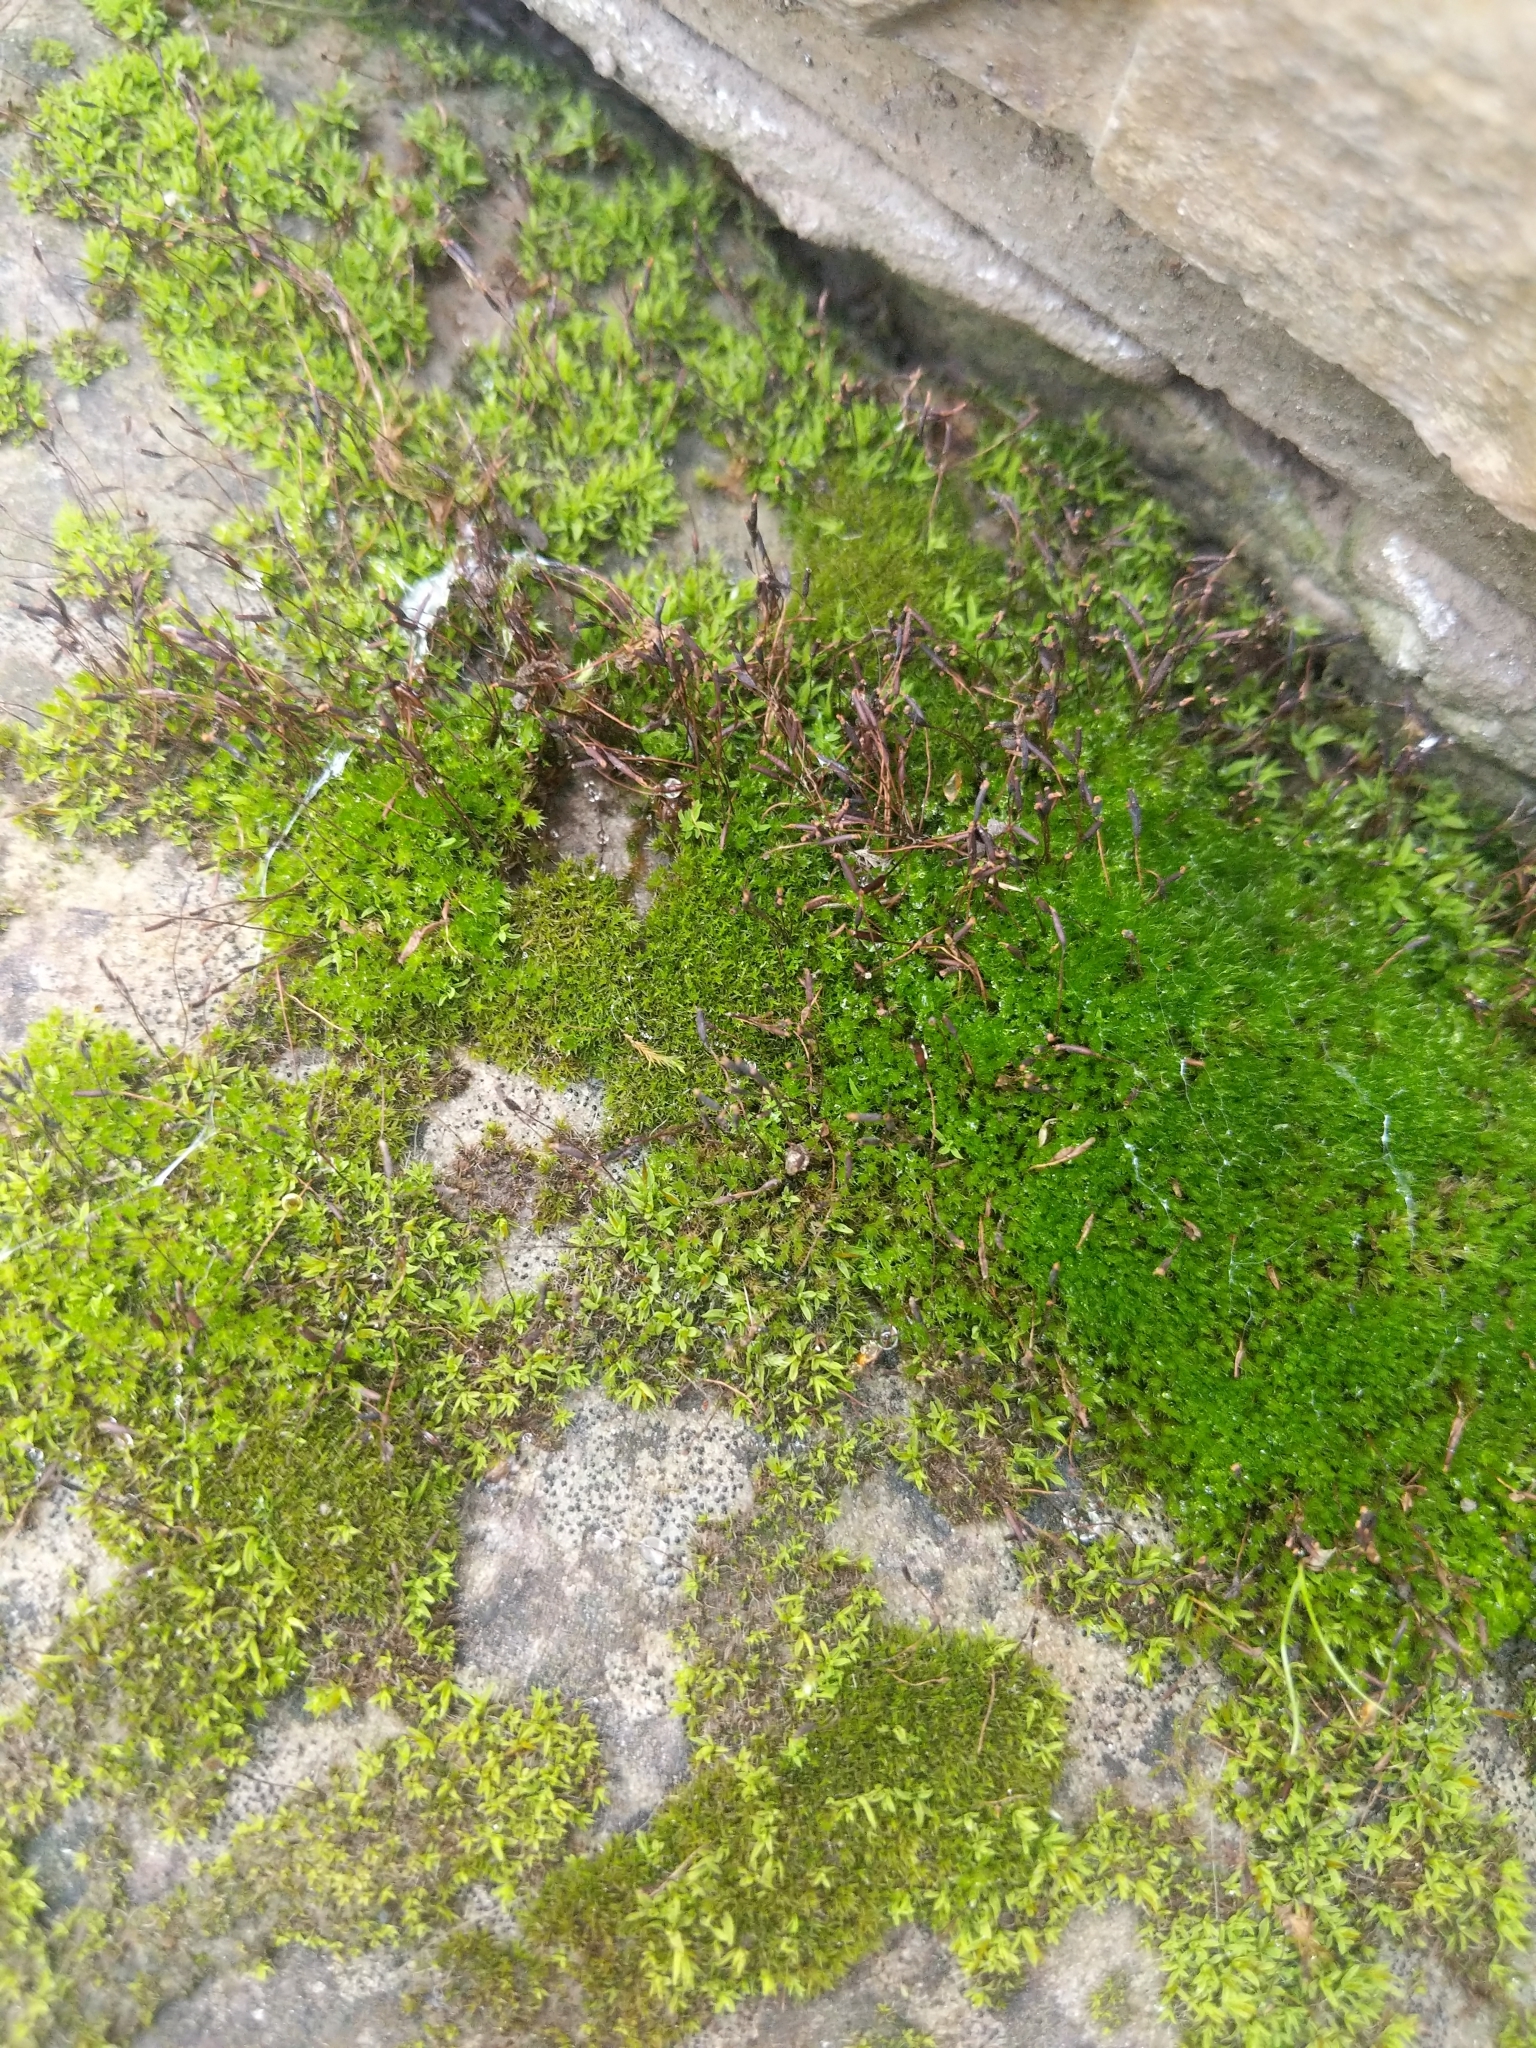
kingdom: Plantae
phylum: Bryophyta
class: Bryopsida
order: Pottiales
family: Pottiaceae
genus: Tortula
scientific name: Tortula muralis
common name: Wall screw-moss
